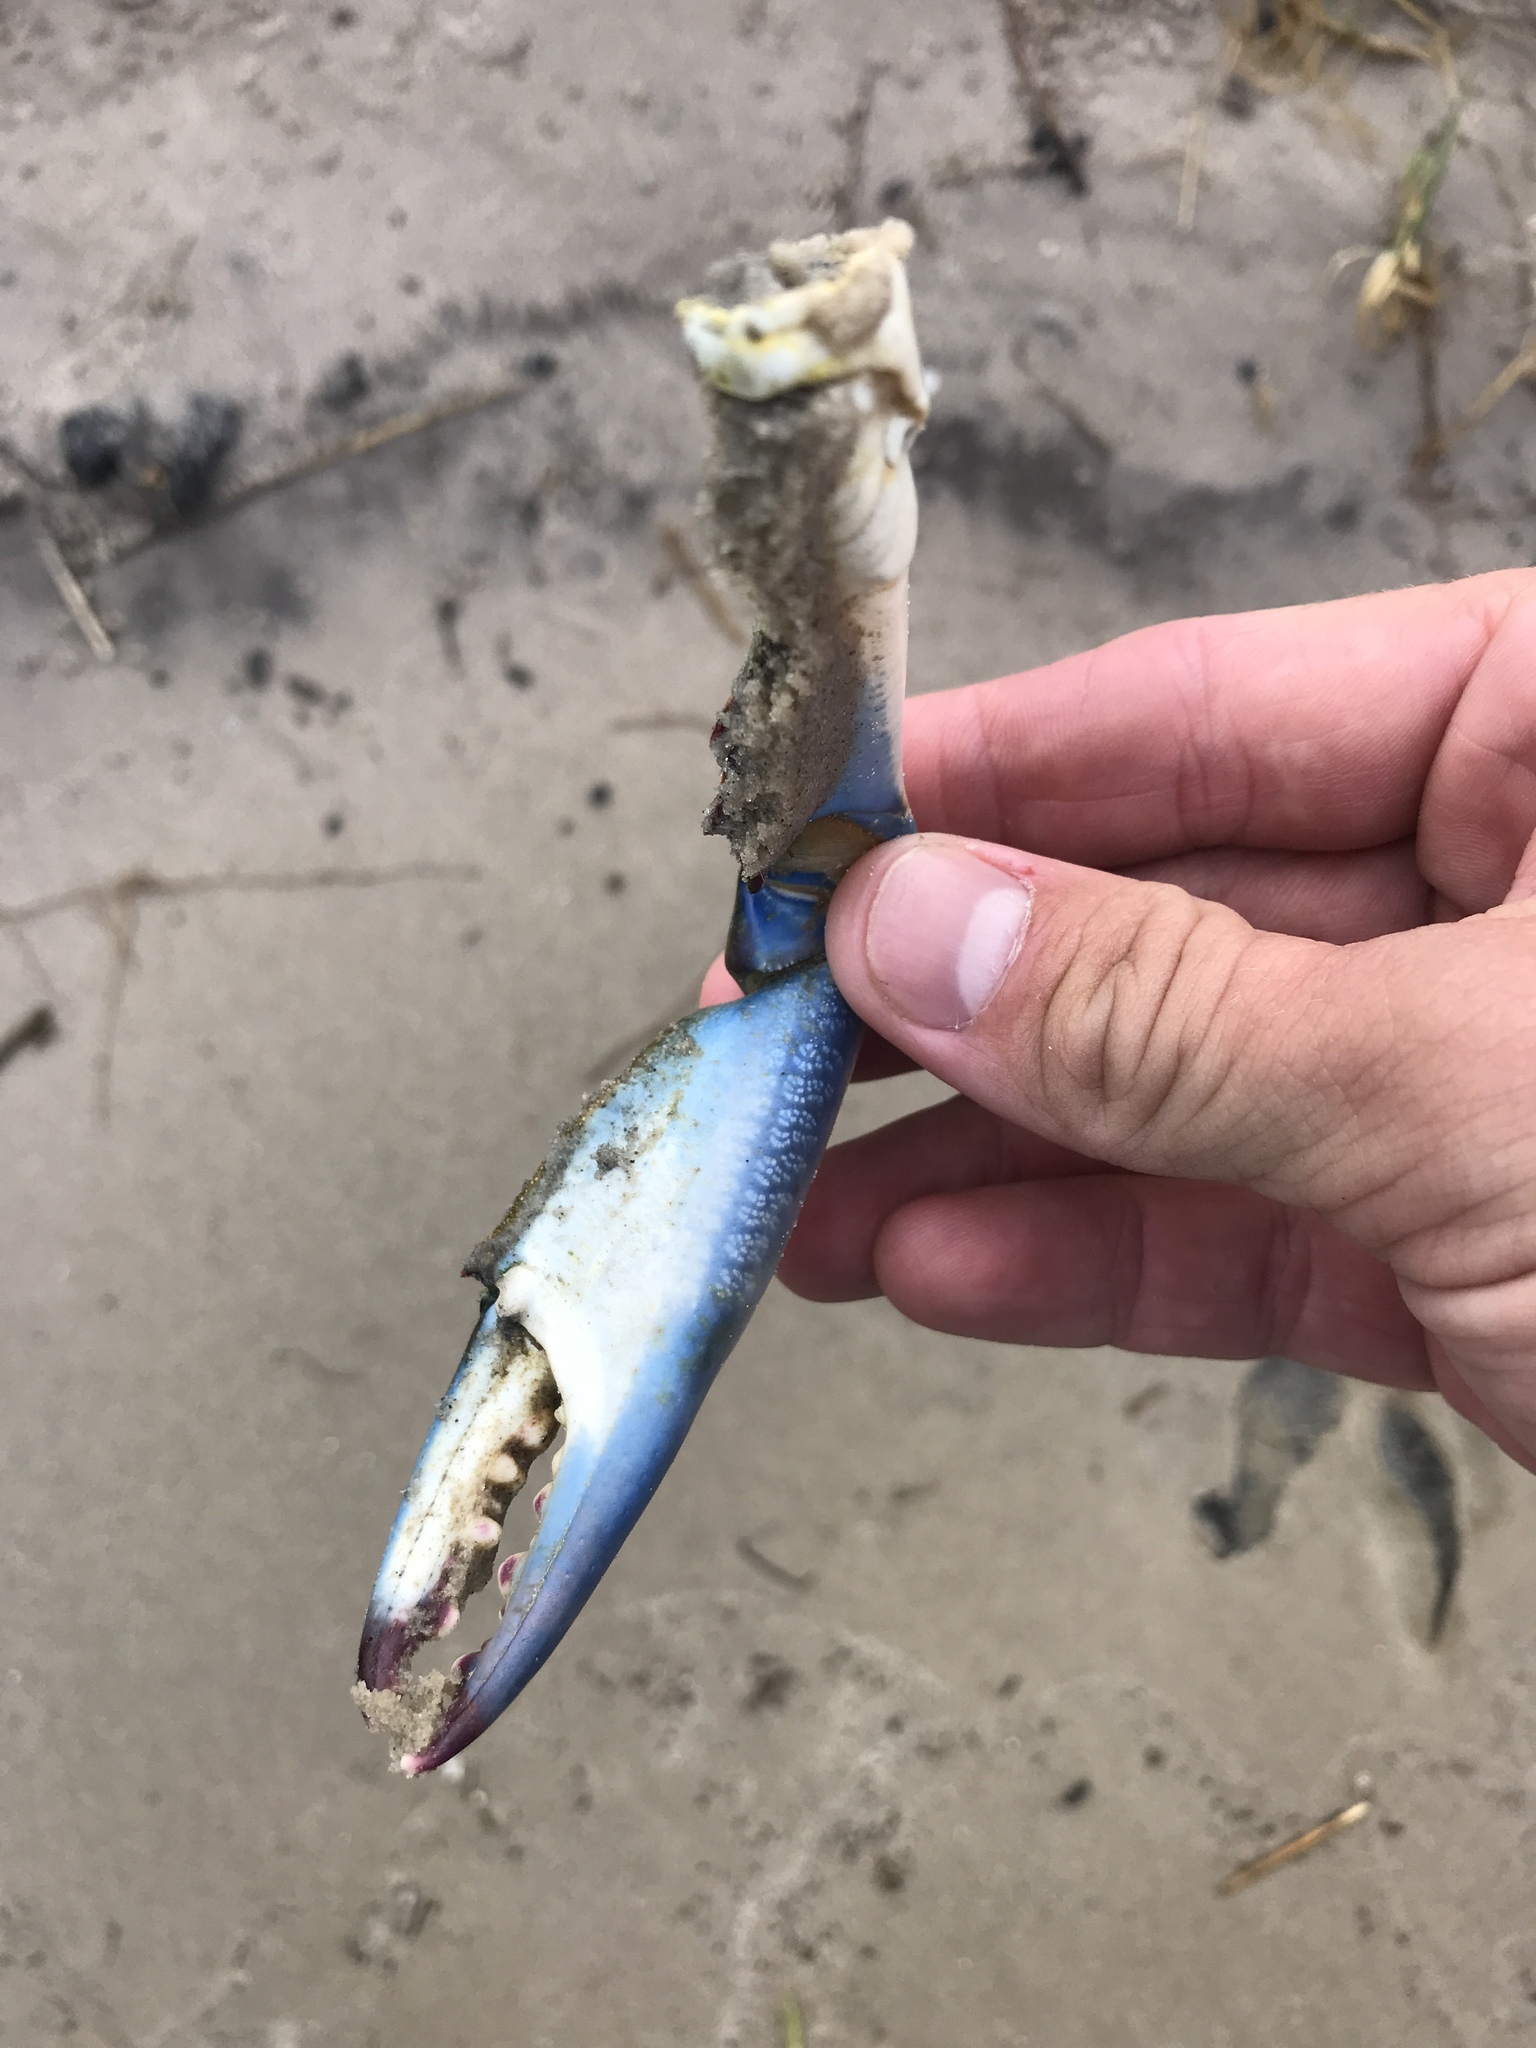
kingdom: Animalia
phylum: Arthropoda
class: Malacostraca
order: Decapoda
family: Portunidae
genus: Callinectes
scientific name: Callinectes sapidus
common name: Blue crab
